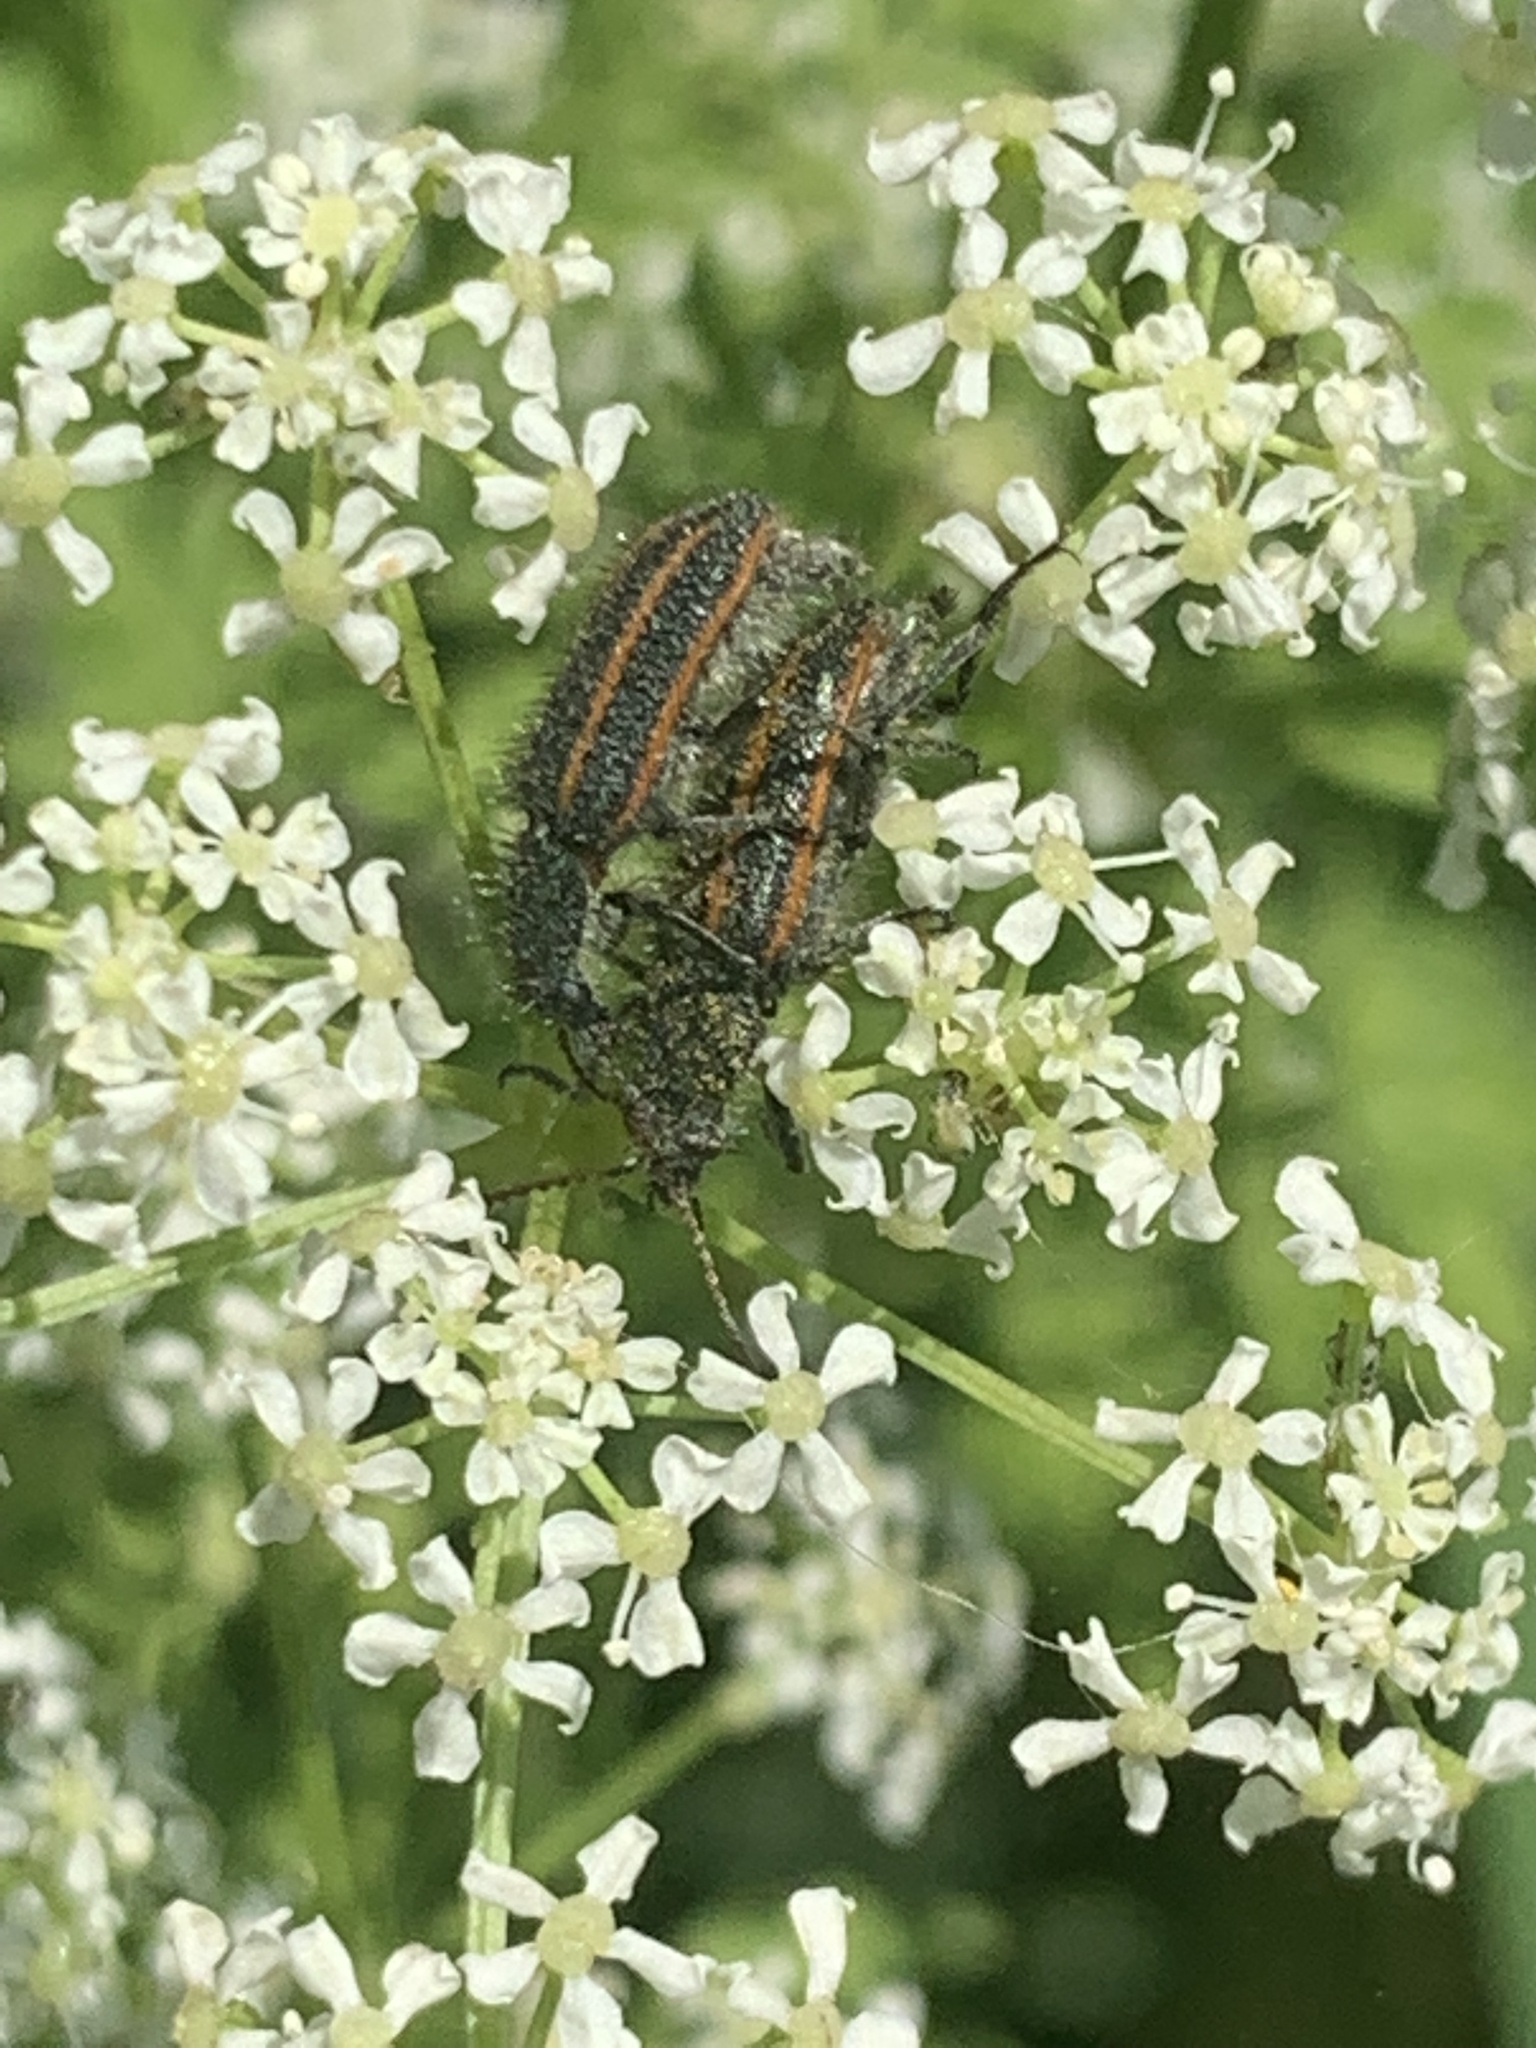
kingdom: Animalia
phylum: Arthropoda
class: Insecta
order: Coleoptera
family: Melyridae
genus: Astylus
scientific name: Astylus
